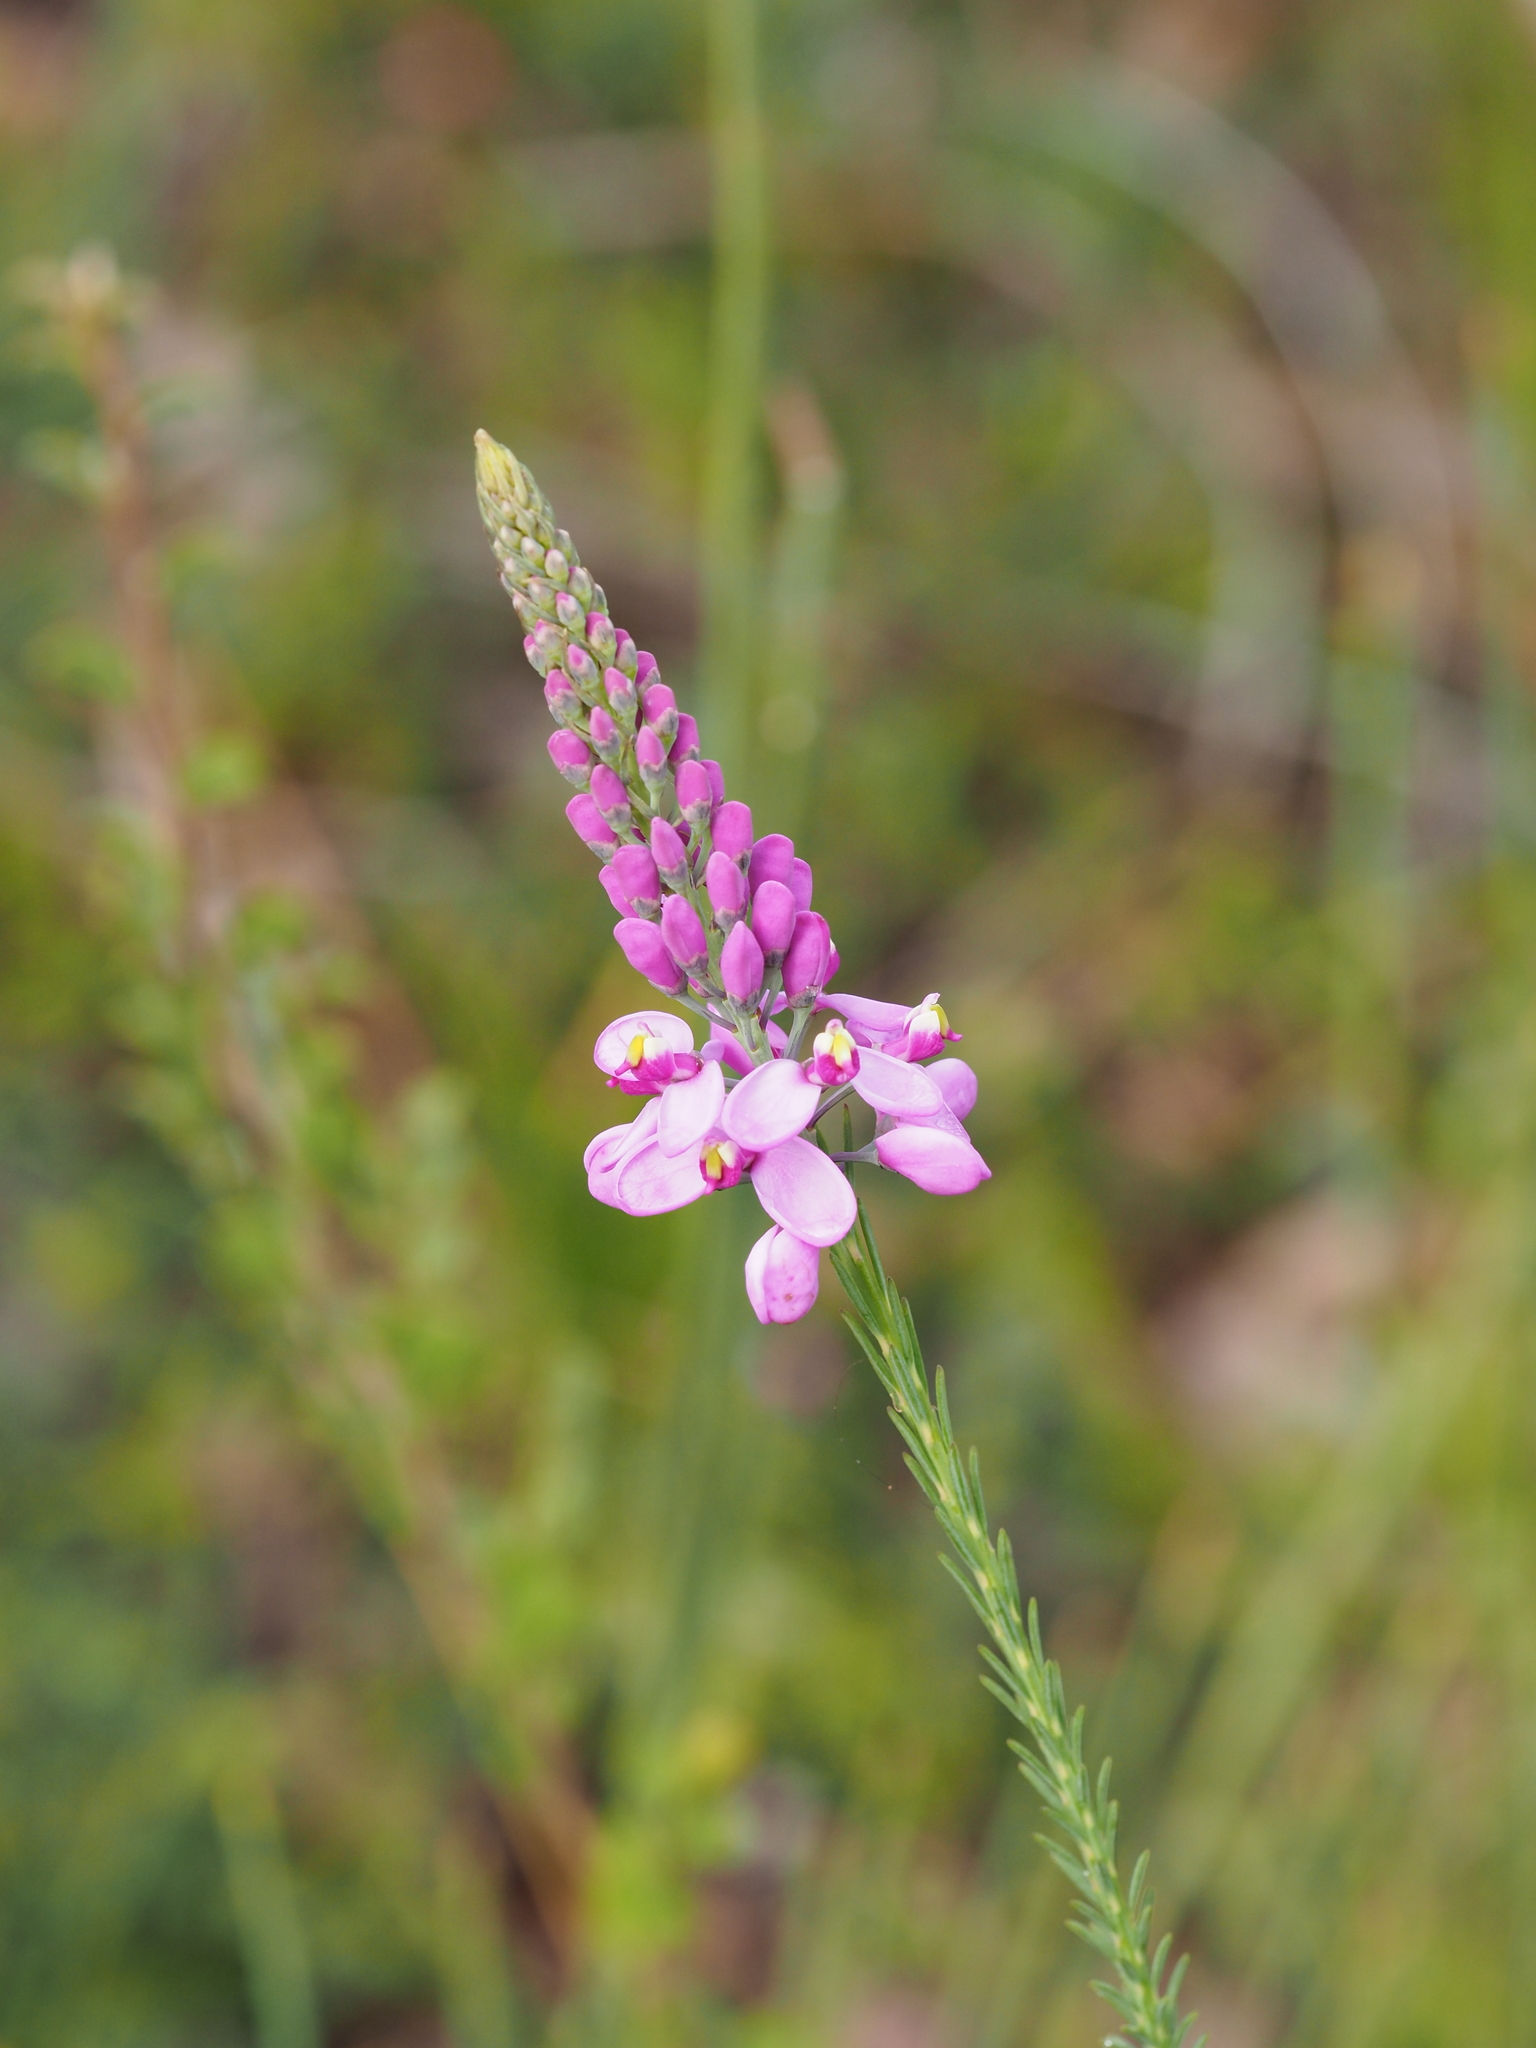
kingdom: Plantae
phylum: Tracheophyta
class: Magnoliopsida
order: Fabales
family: Polygalaceae
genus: Comesperma
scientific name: Comesperma virgatum
